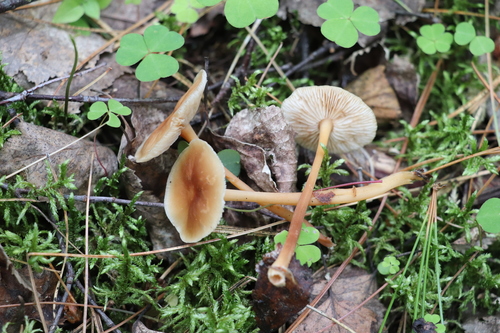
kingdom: Fungi
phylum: Basidiomycota
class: Agaricomycetes
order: Agaricales
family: Omphalotaceae
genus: Gymnopus
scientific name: Gymnopus dryophilus
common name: Penny top
